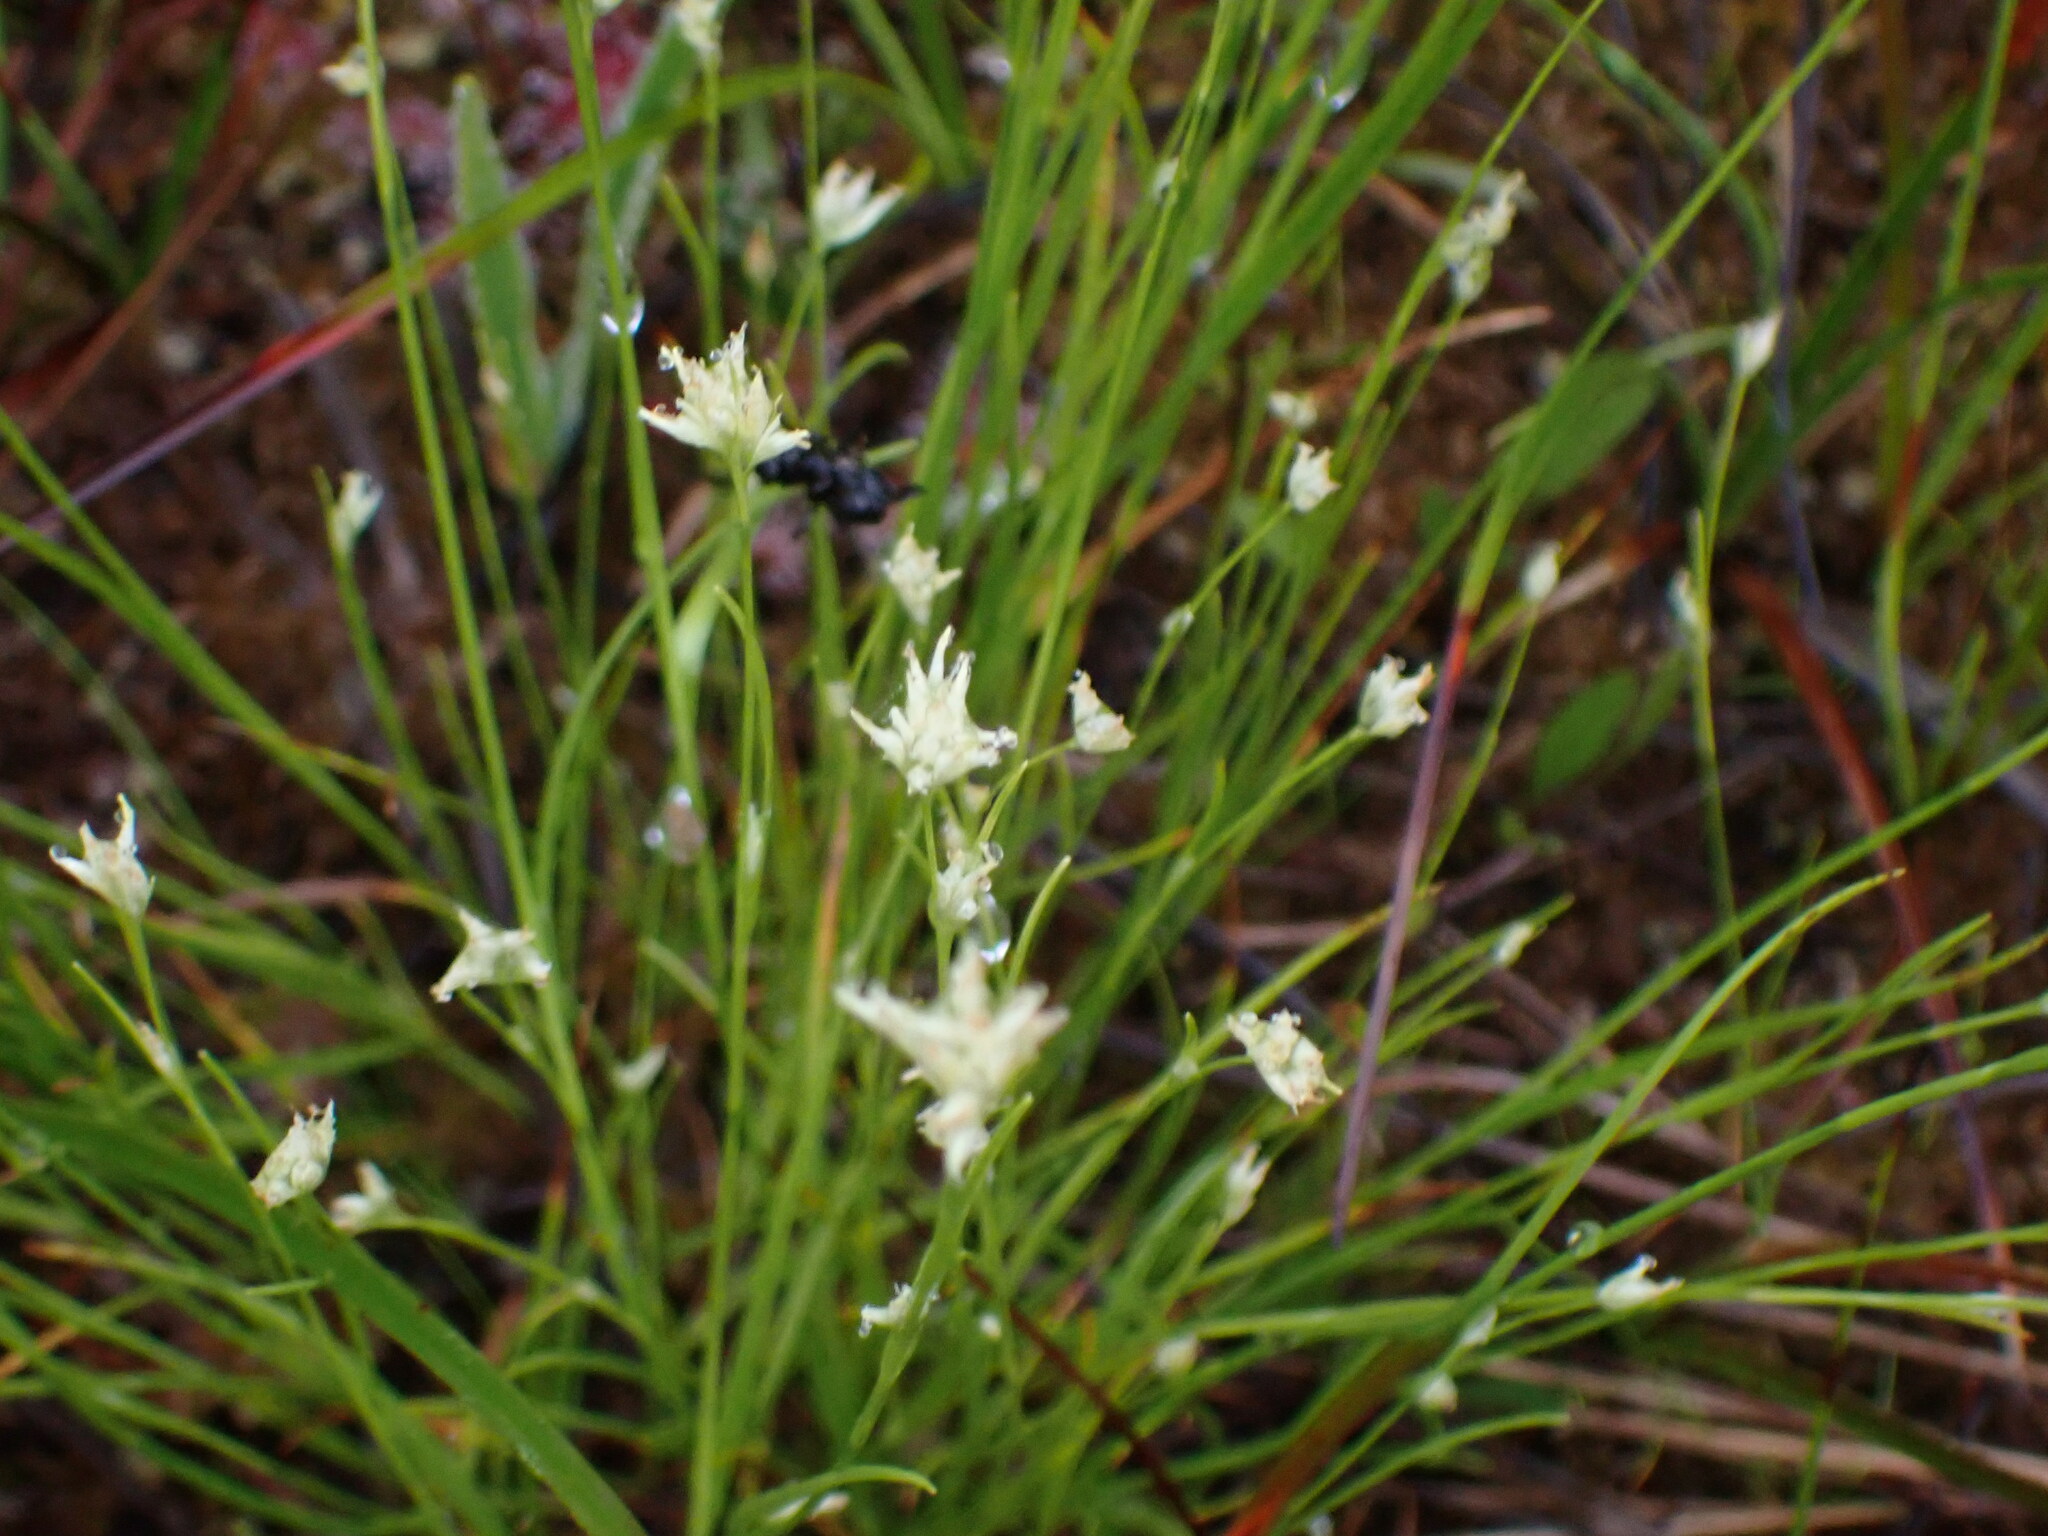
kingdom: Plantae
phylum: Tracheophyta
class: Liliopsida
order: Poales
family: Cyperaceae
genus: Rhynchospora
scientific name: Rhynchospora alba
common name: White beak-sedge
